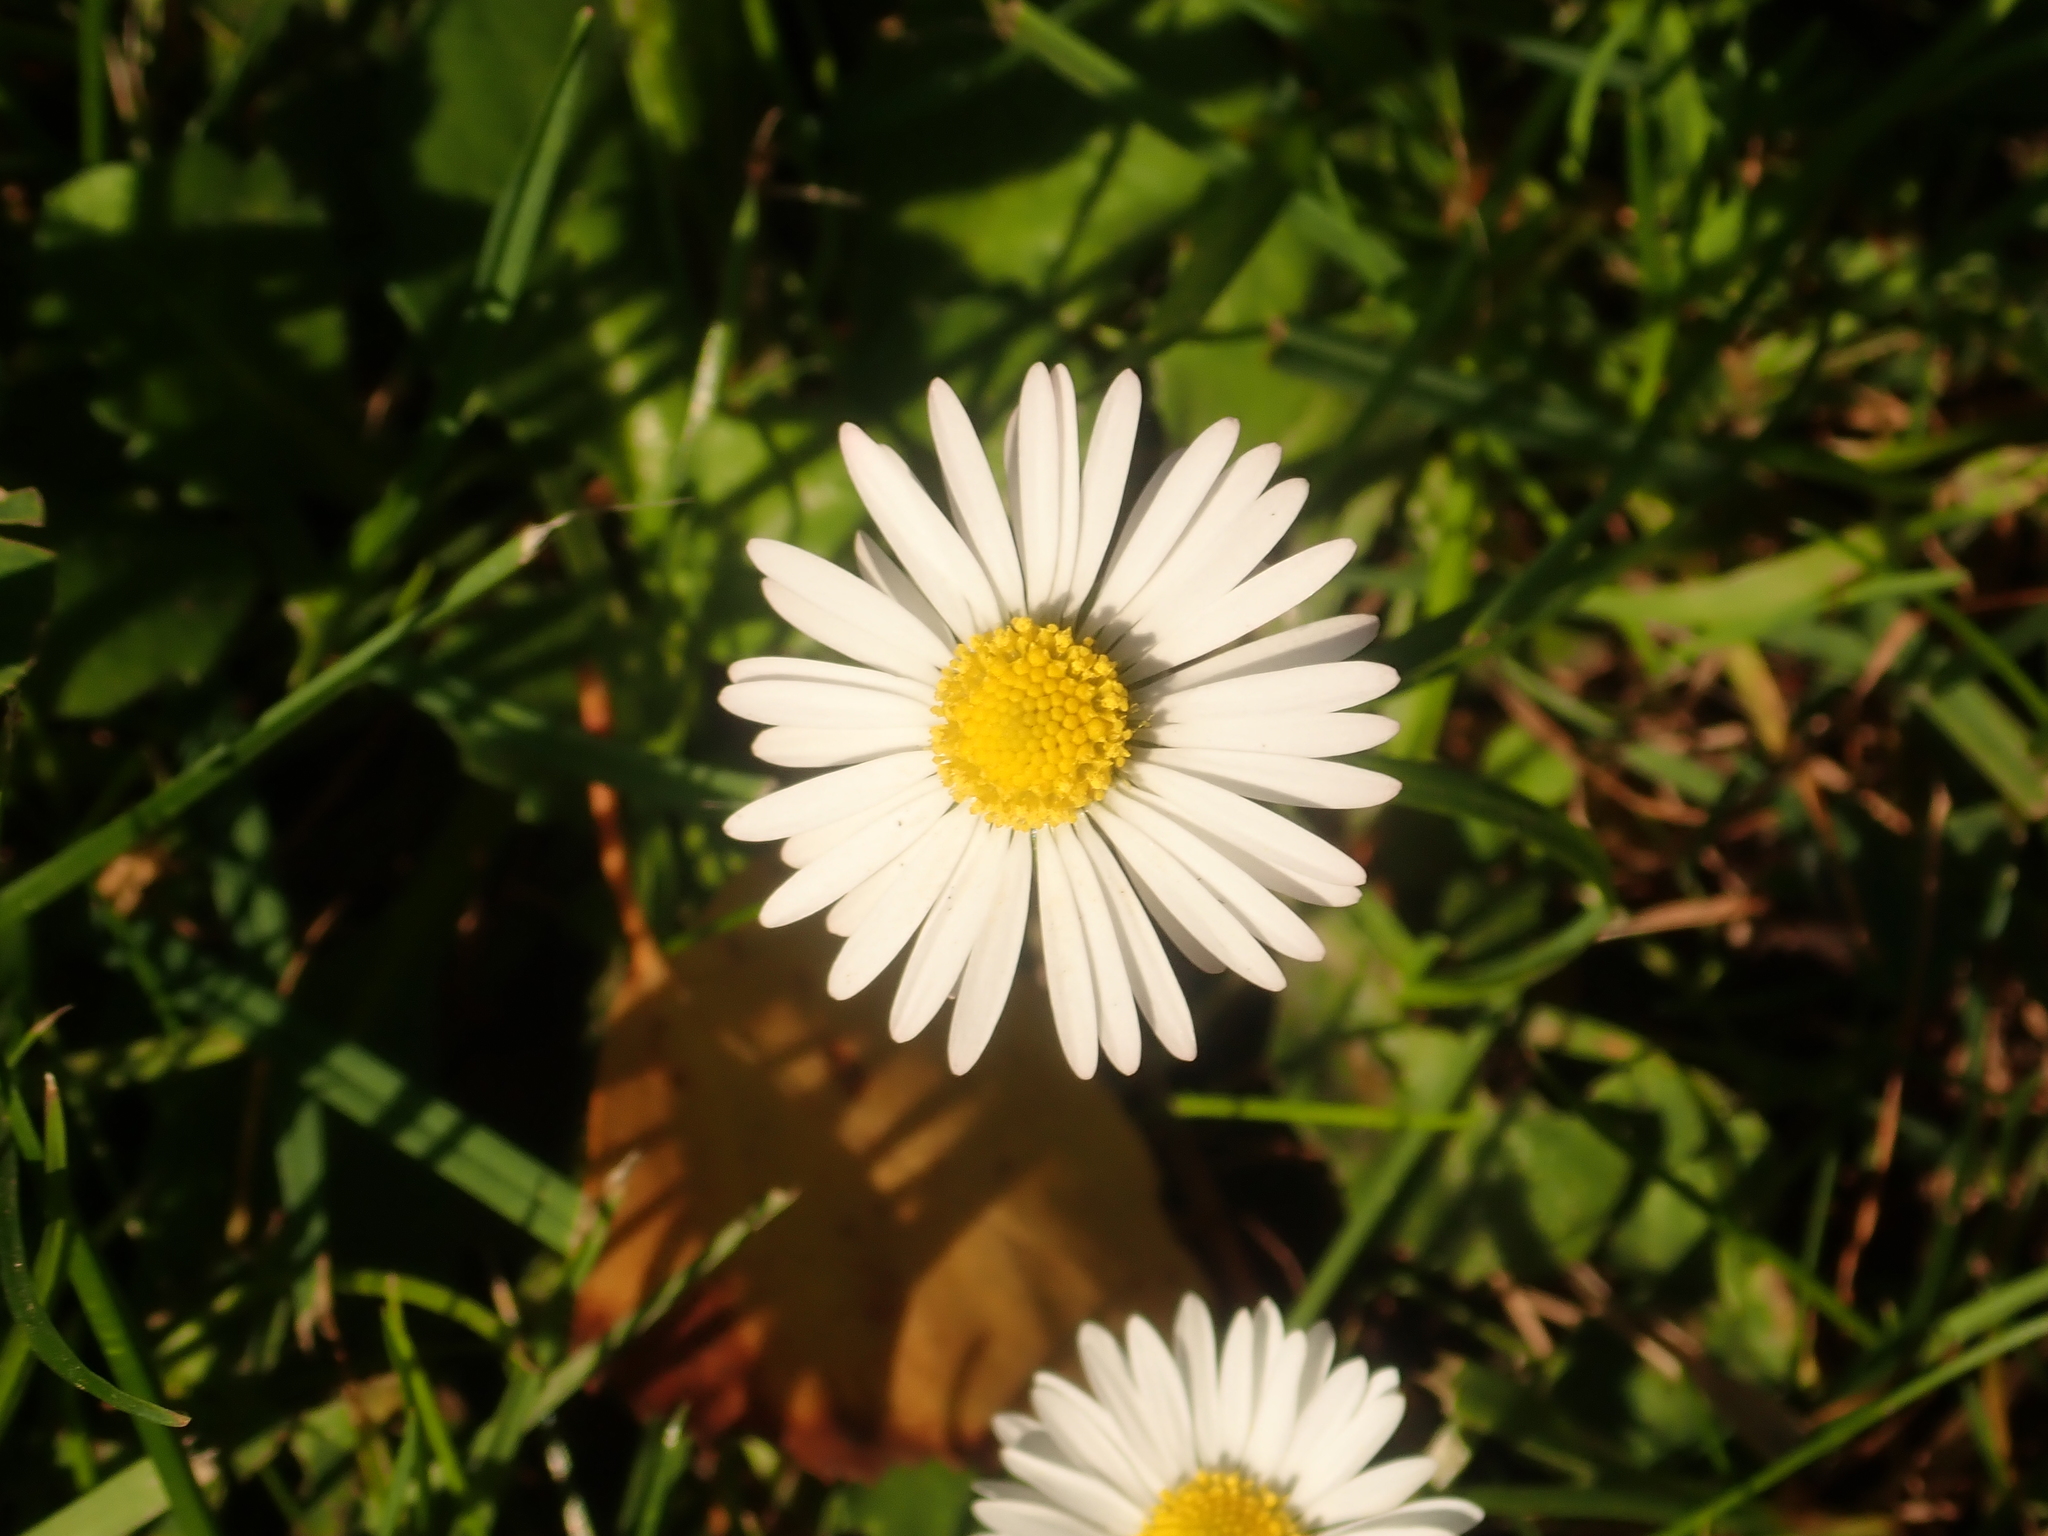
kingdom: Plantae
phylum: Tracheophyta
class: Magnoliopsida
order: Asterales
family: Asteraceae
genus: Bellis
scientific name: Bellis perennis
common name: Lawndaisy
